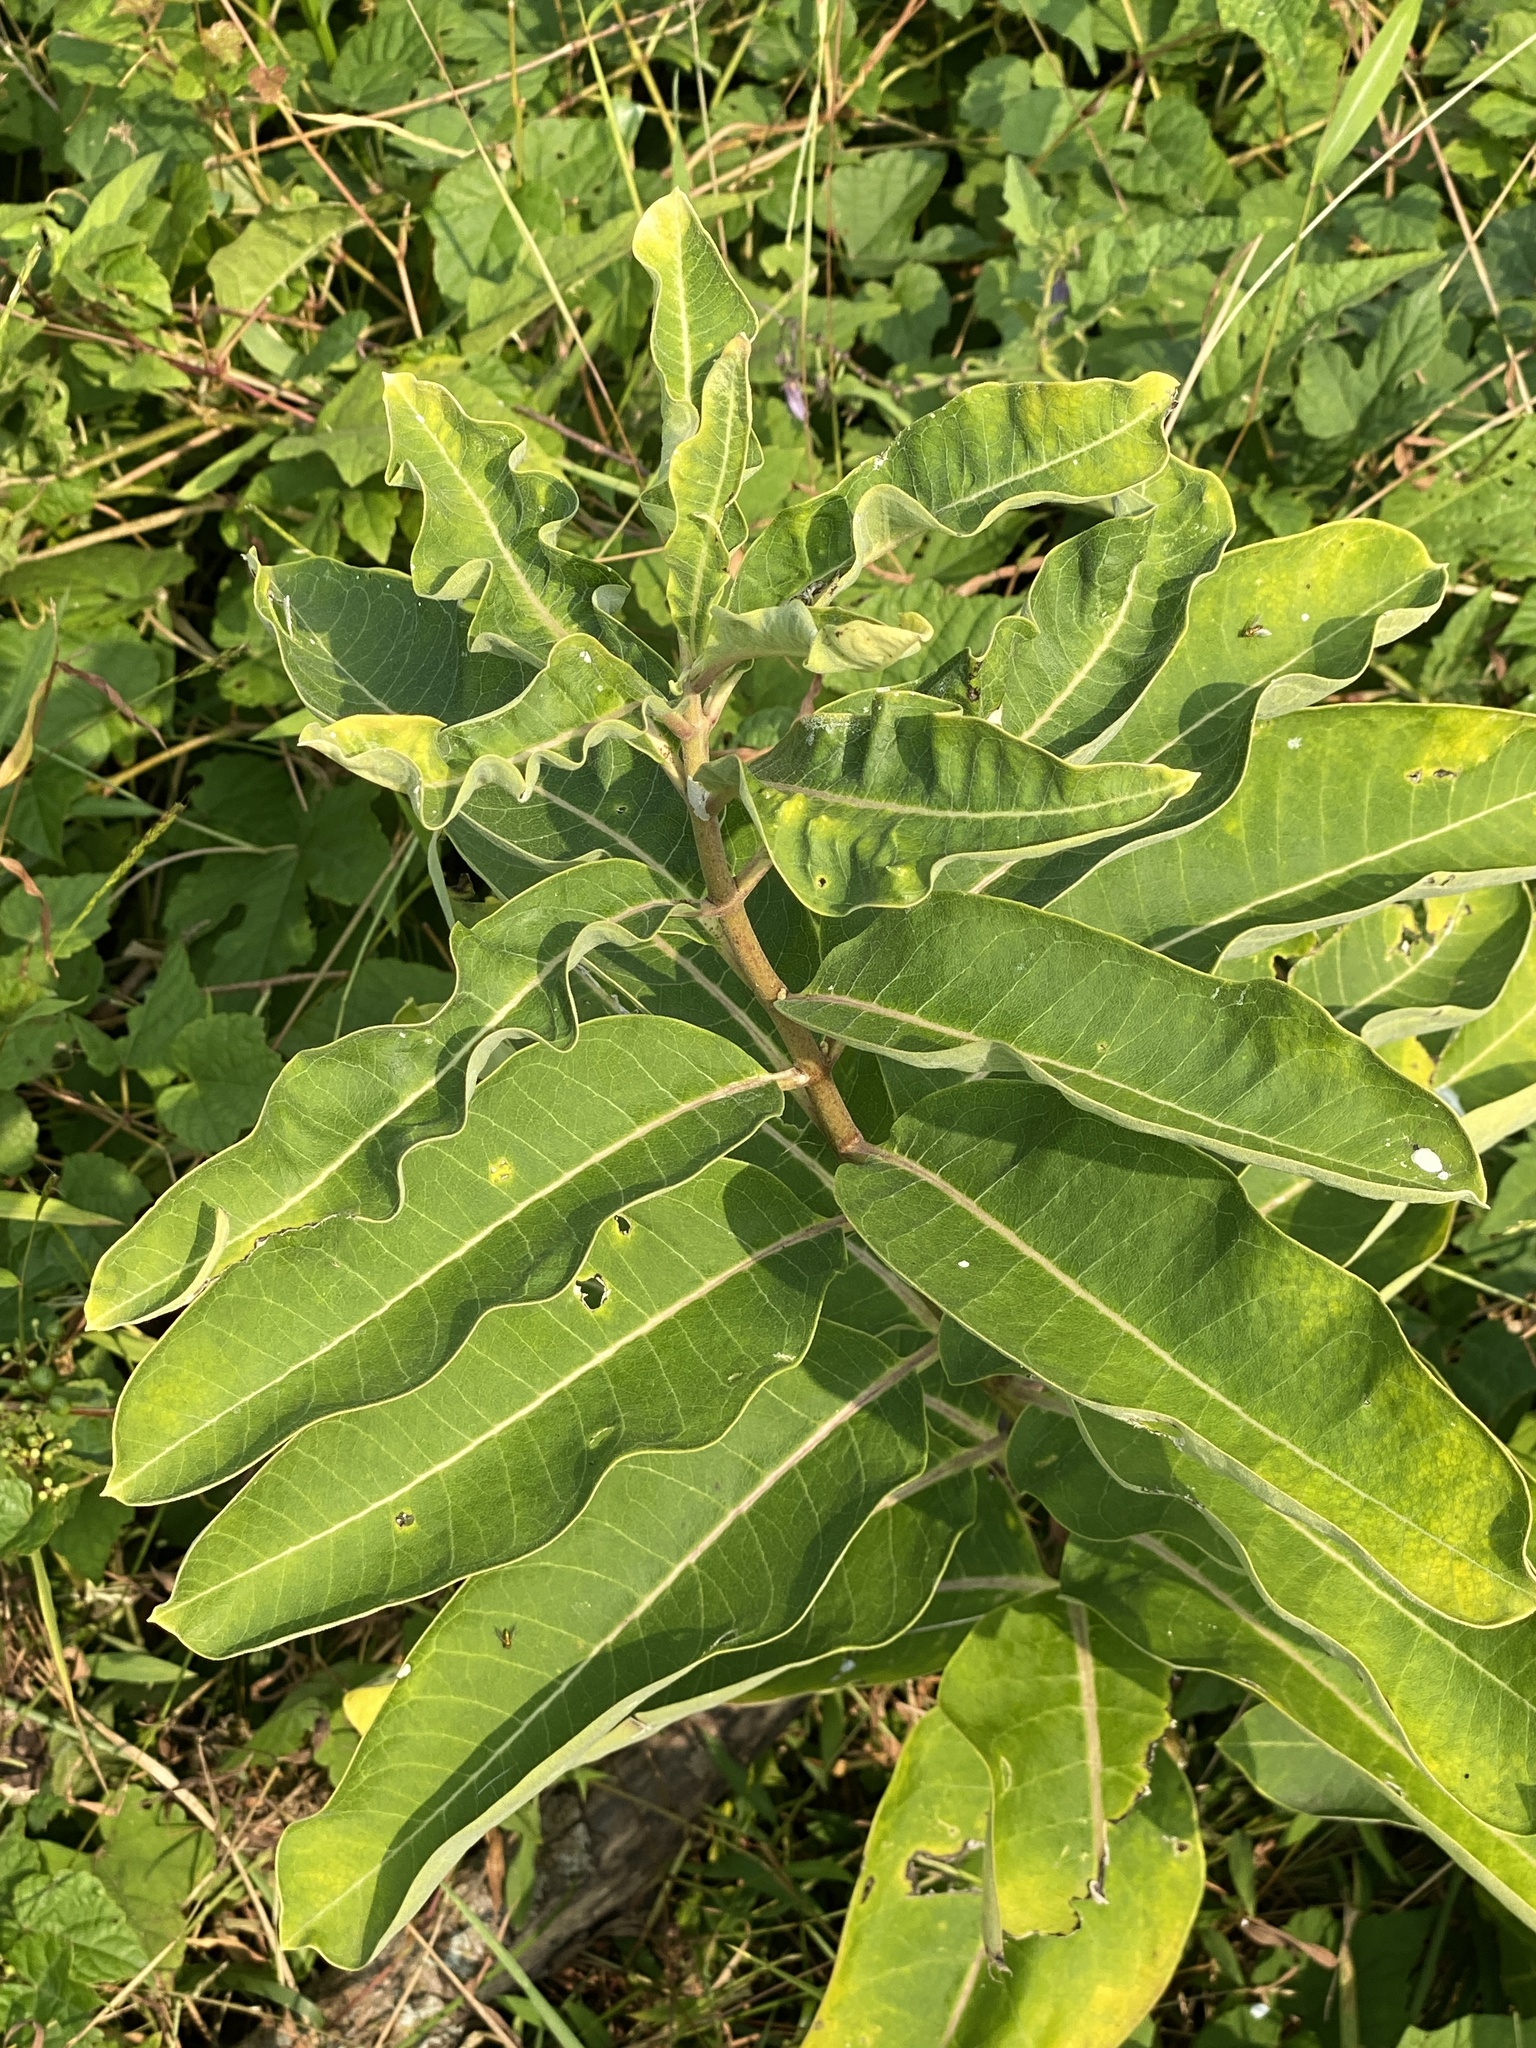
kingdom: Plantae
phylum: Tracheophyta
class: Magnoliopsida
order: Gentianales
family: Apocynaceae
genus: Asclepias
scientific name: Asclepias syriaca
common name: Common milkweed
